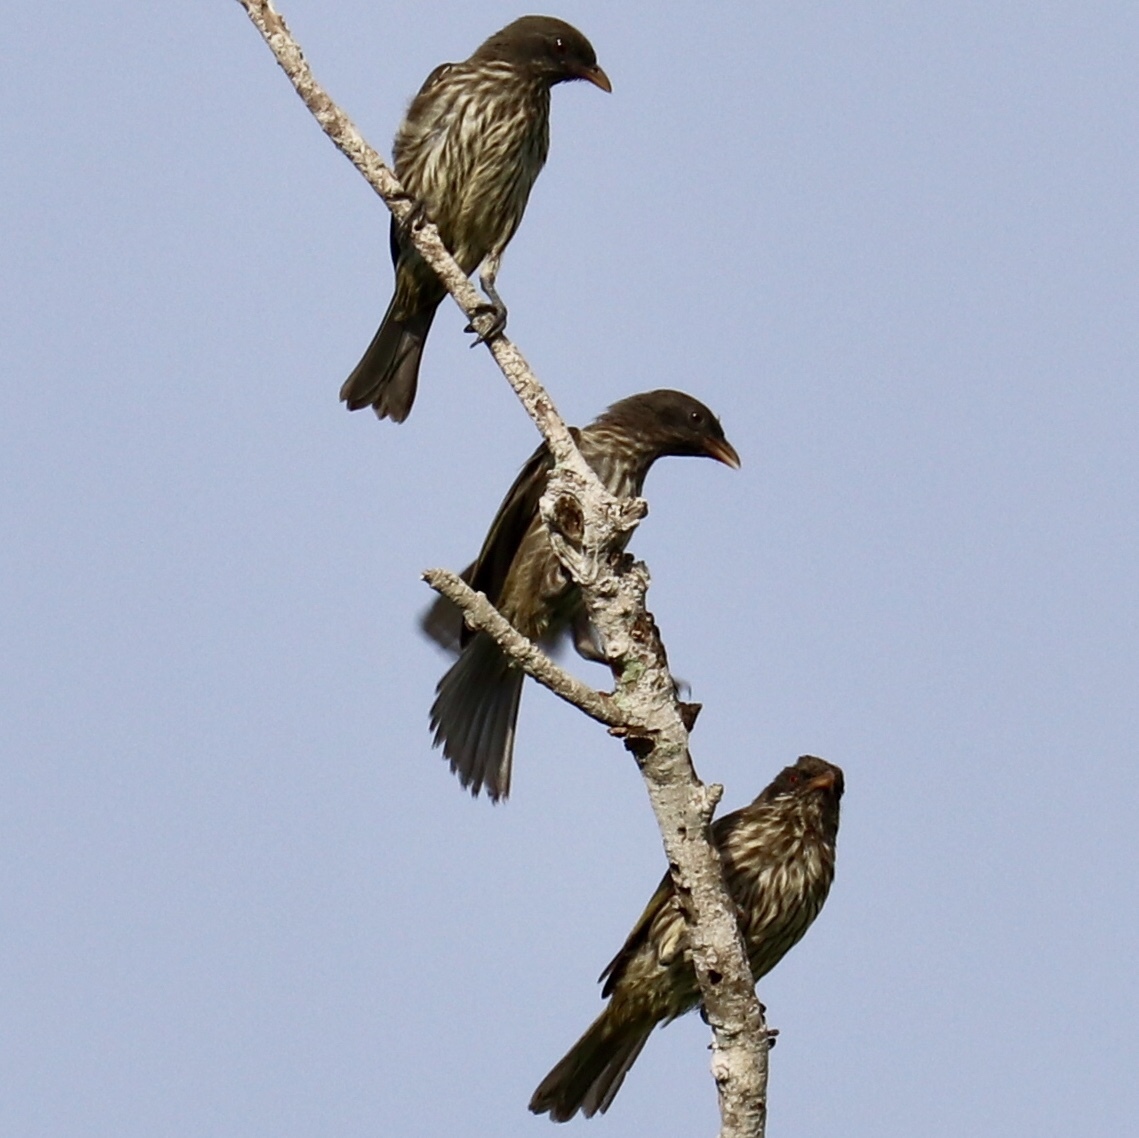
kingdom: Animalia
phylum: Chordata
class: Aves
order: Passeriformes
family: Dulidae
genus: Dulus
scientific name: Dulus dominicus
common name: Palmchat
